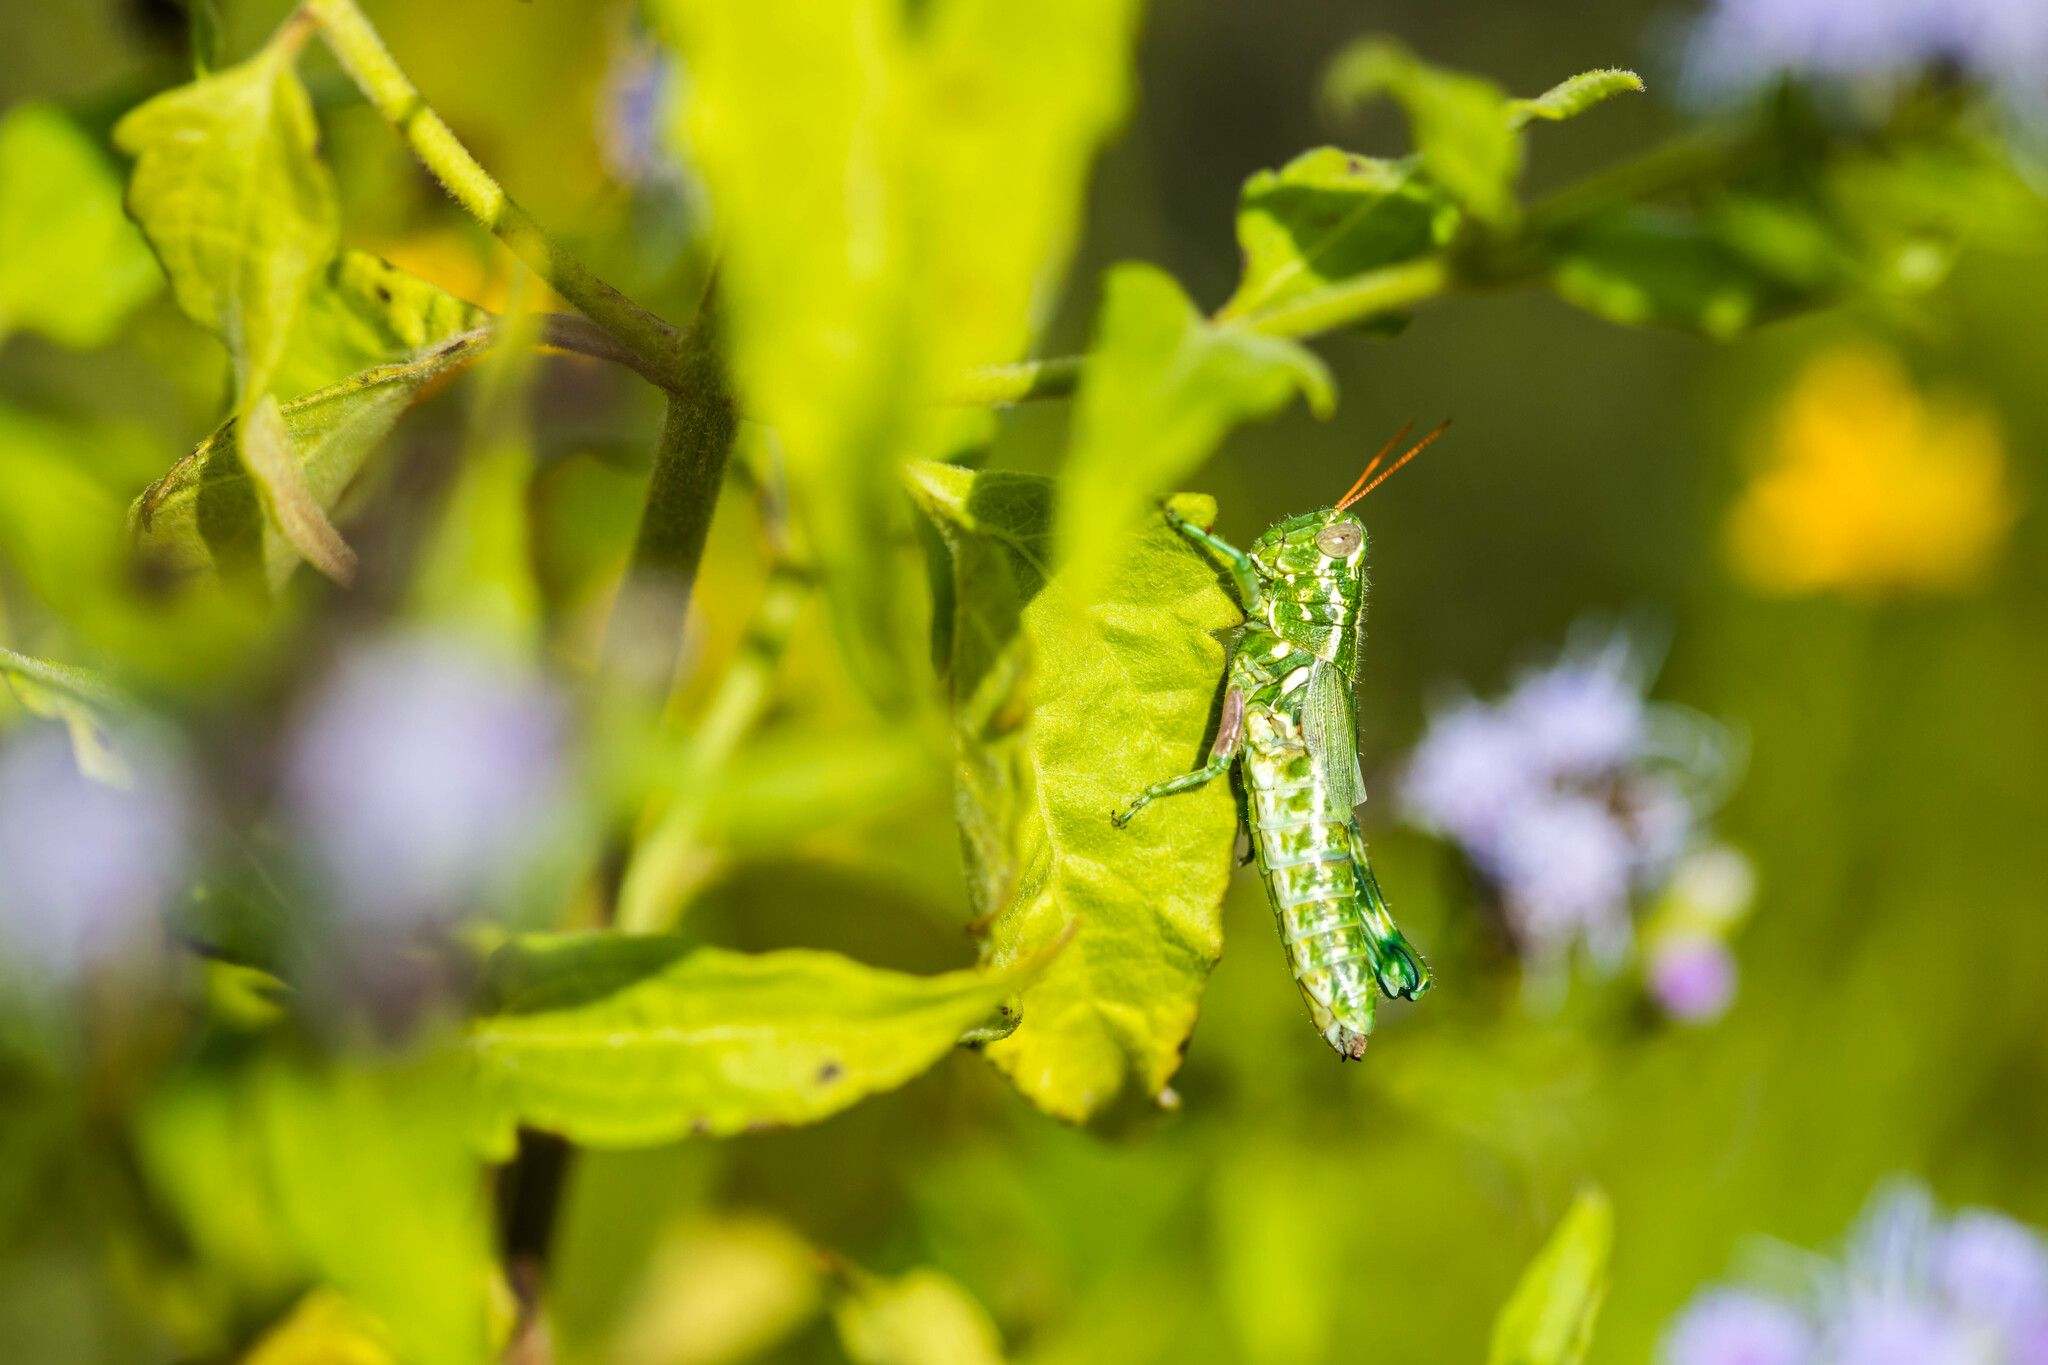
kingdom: Animalia
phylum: Arthropoda
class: Insecta
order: Orthoptera
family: Acrididae
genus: Campylacantha
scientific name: Campylacantha olivacea
